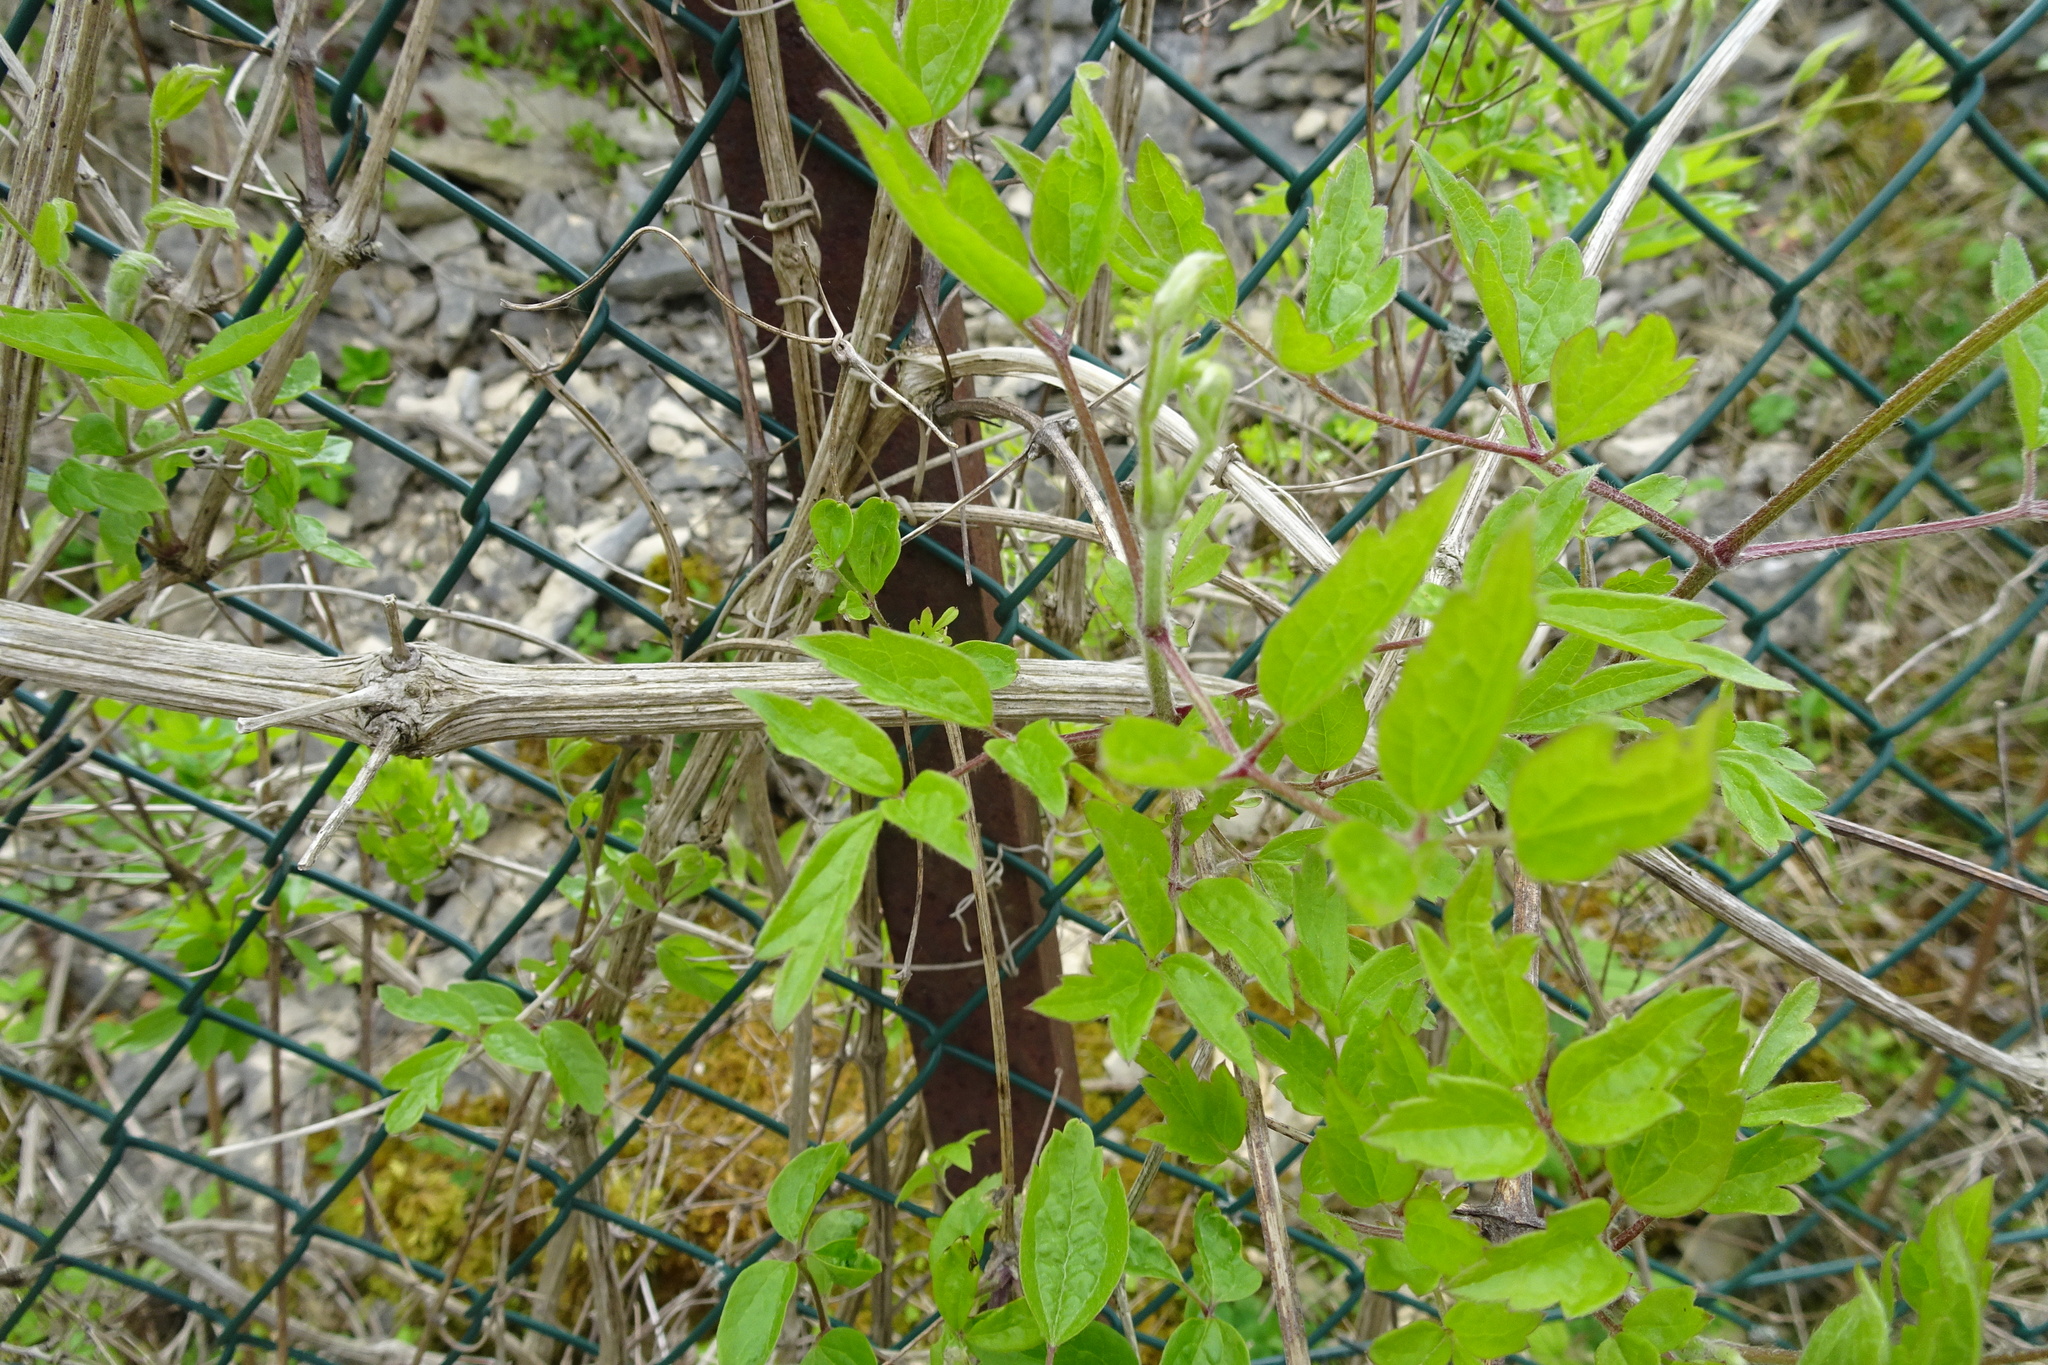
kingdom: Plantae
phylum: Tracheophyta
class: Magnoliopsida
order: Ranunculales
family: Ranunculaceae
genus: Clematis
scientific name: Clematis vitalba
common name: Evergreen clematis
